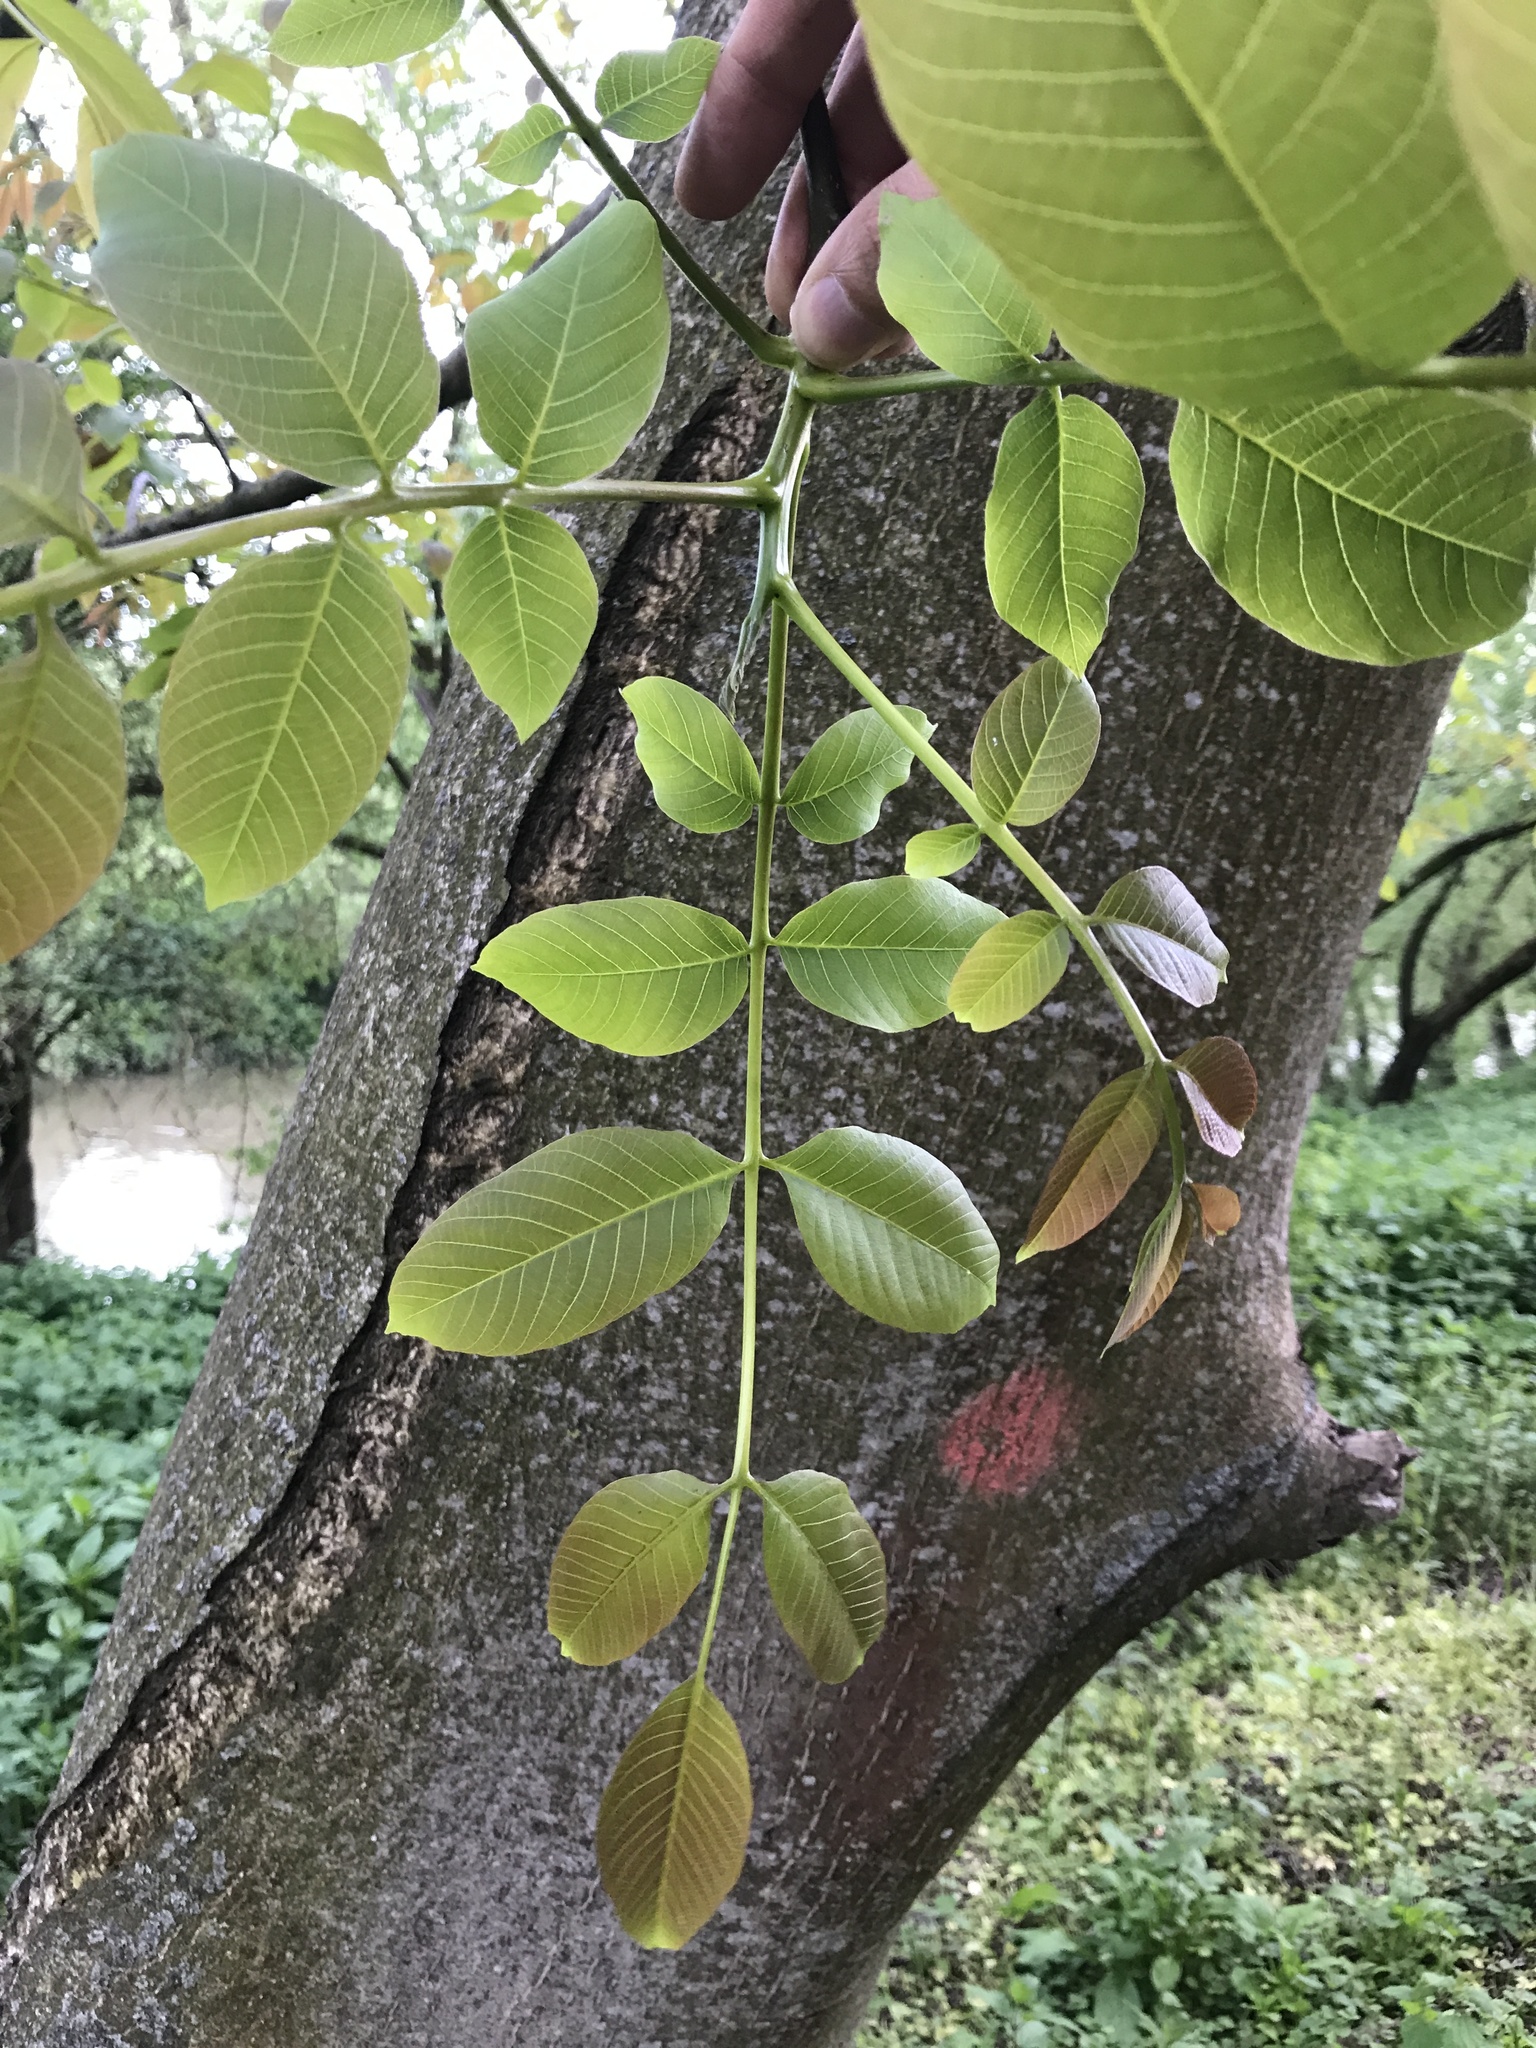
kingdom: Plantae
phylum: Tracheophyta
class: Magnoliopsida
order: Fagales
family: Juglandaceae
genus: Juglans
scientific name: Juglans regia
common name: Walnut
